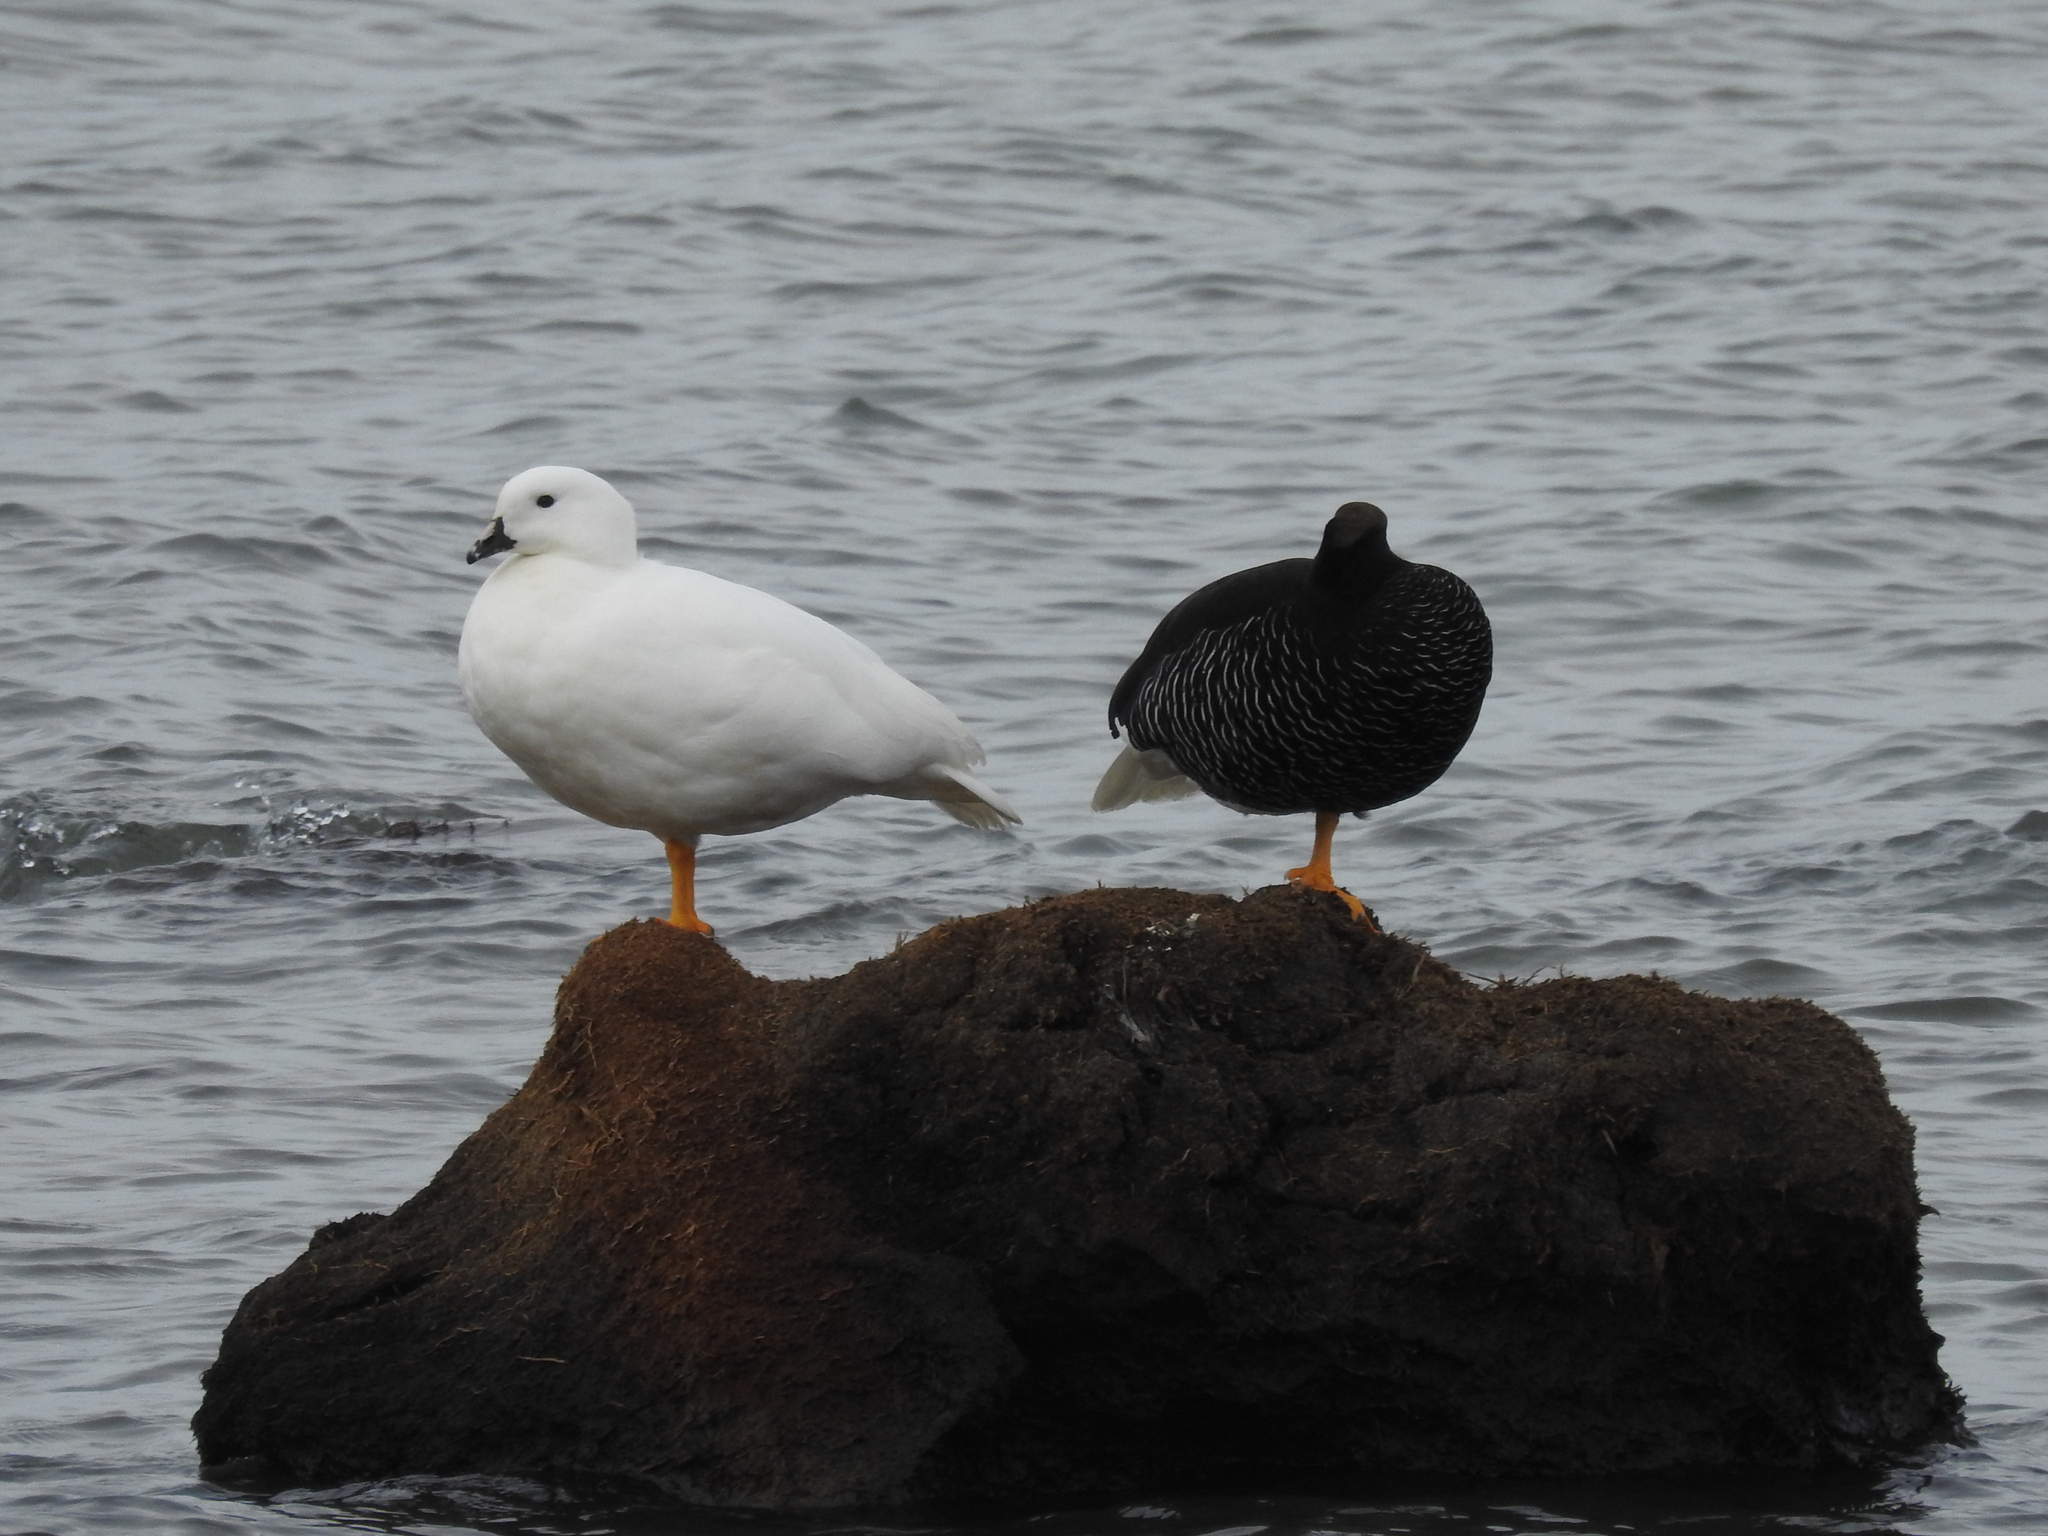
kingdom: Animalia
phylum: Chordata
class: Aves
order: Anseriformes
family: Anatidae
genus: Chloephaga
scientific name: Chloephaga hybrida
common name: Kelp goose
